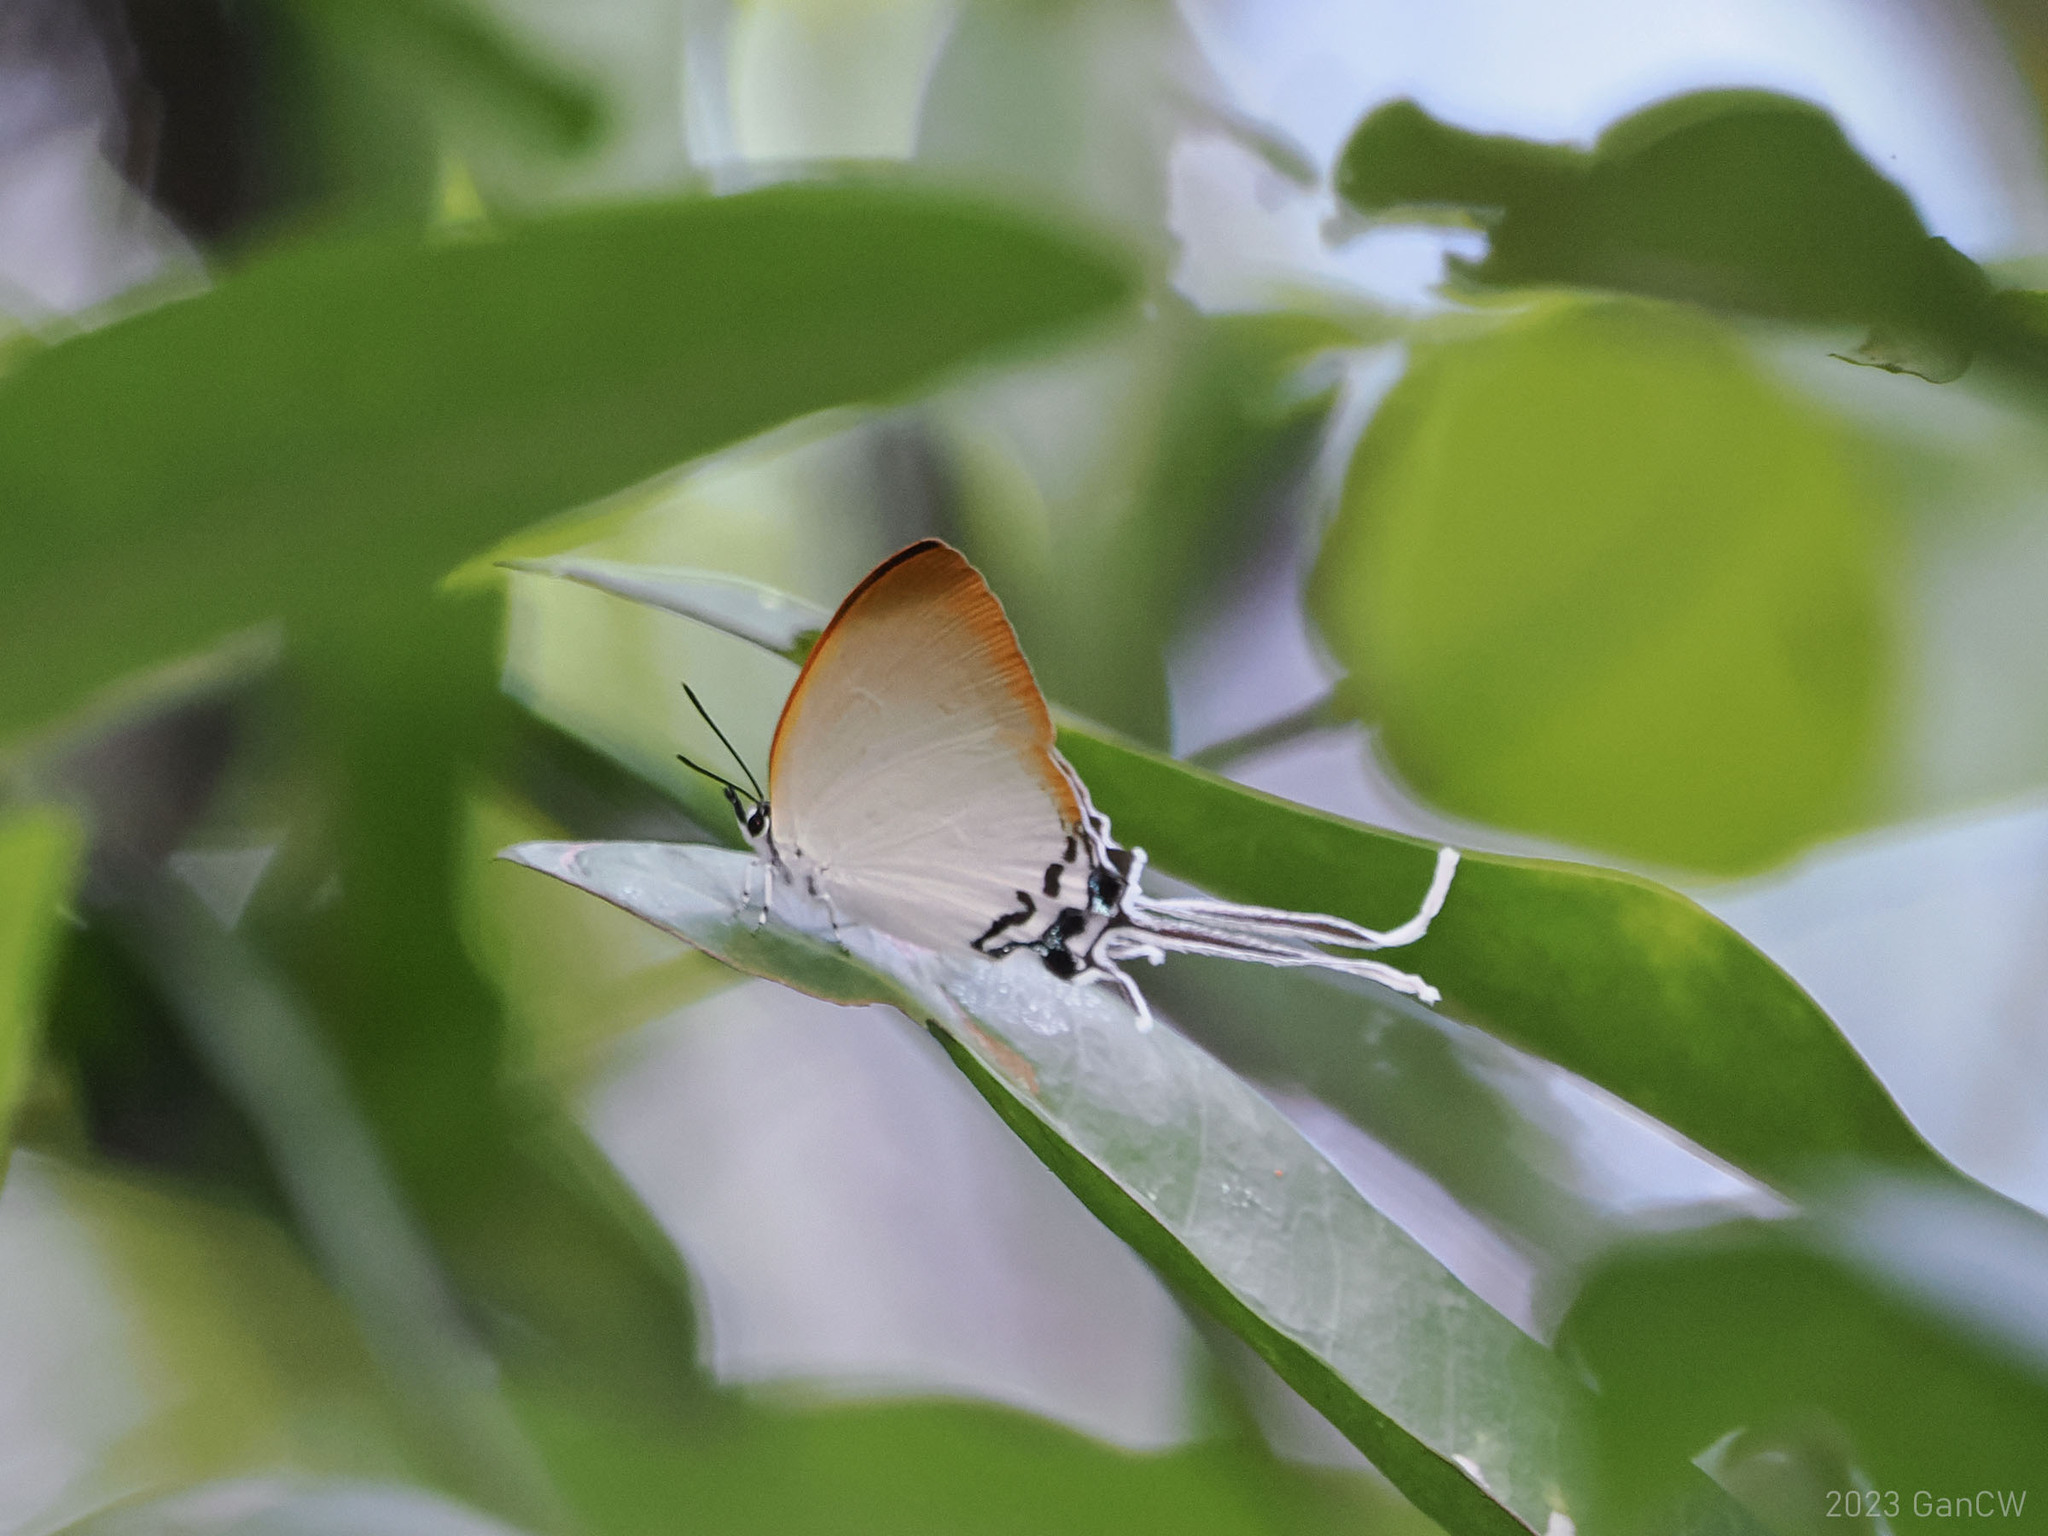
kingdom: Animalia
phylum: Arthropoda
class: Insecta
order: Lepidoptera
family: Lycaenidae
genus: Cheritra
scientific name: Cheritra orpheus
